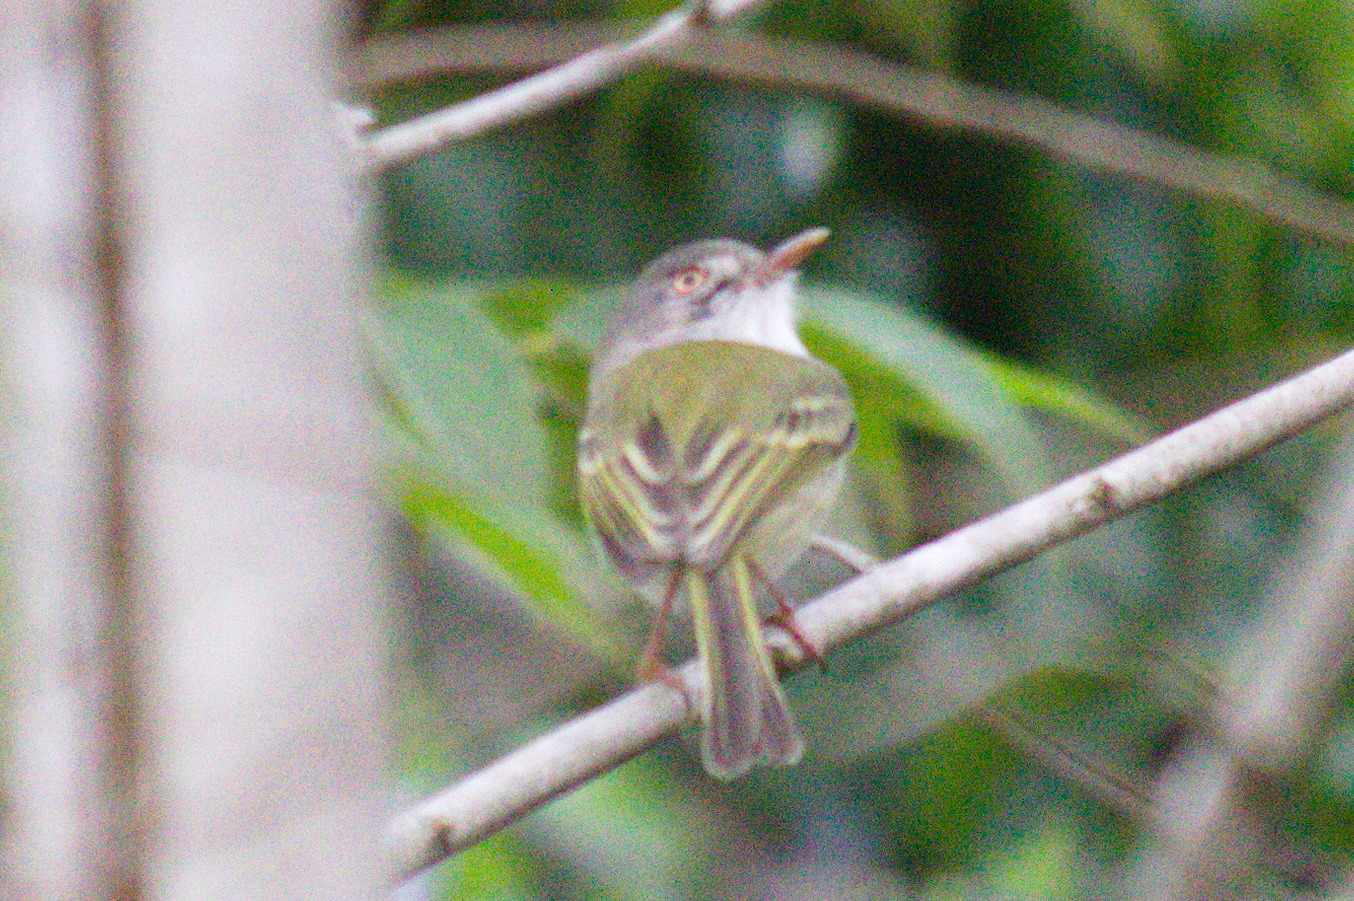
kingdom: Animalia
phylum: Chordata
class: Aves
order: Passeriformes
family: Tyrannidae
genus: Hemitriccus
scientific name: Hemitriccus margaritaceiventer
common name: Pearly-vented tody-tyrant
